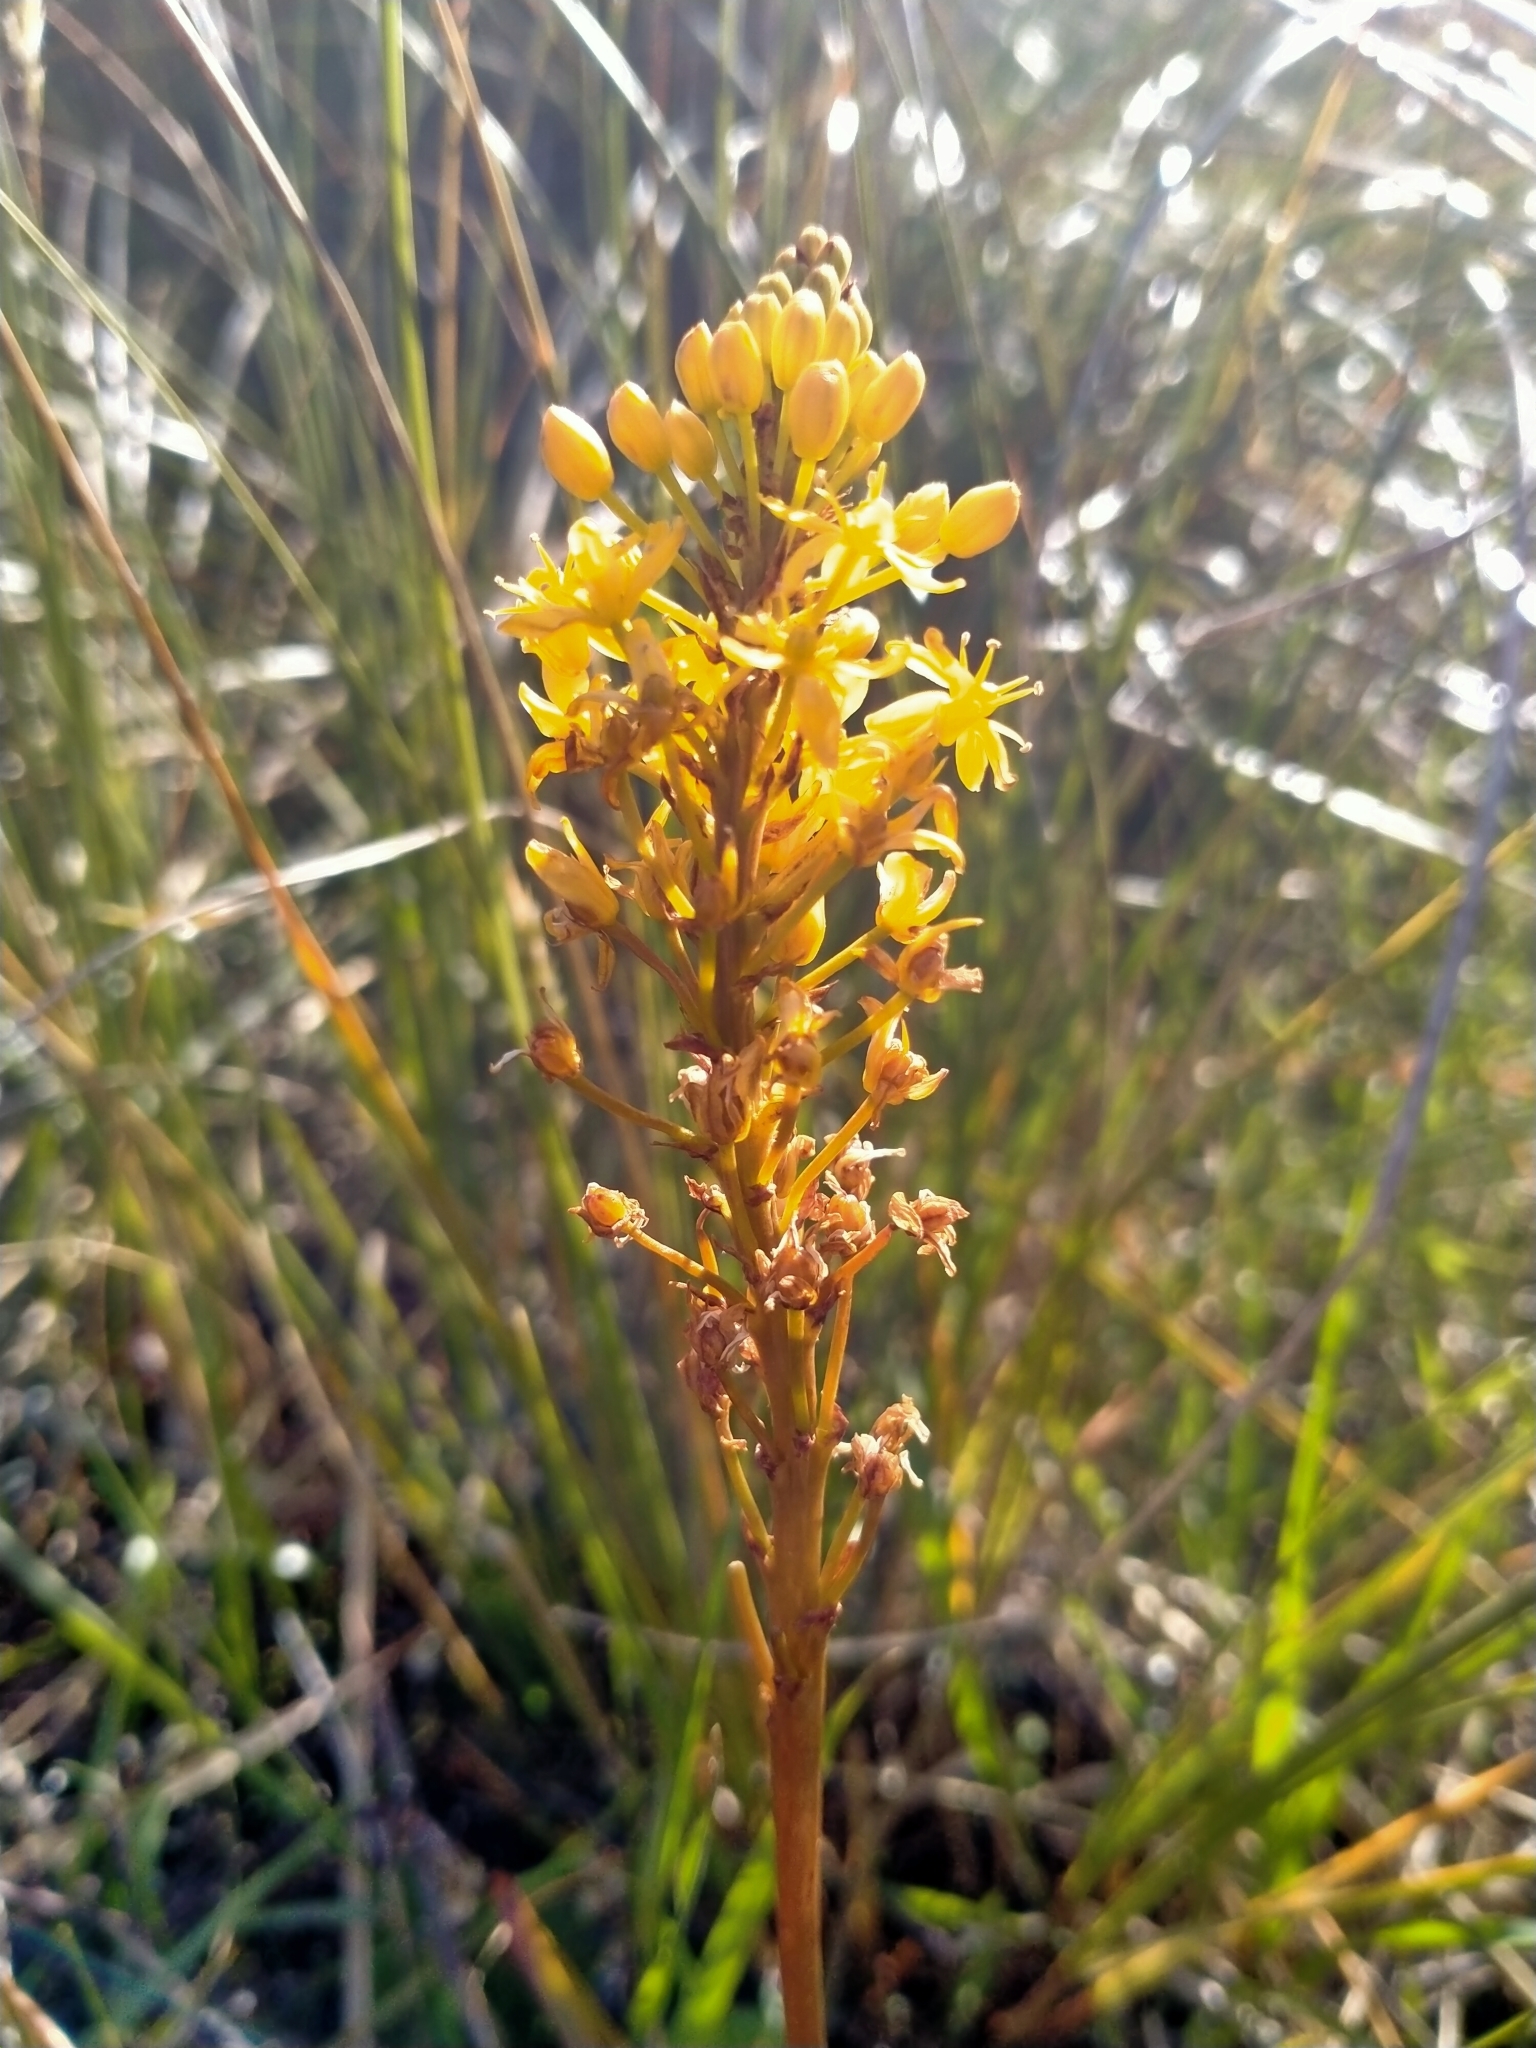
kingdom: Plantae
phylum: Tracheophyta
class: Liliopsida
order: Asparagales
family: Asphodelaceae
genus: Bulbinella
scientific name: Bulbinella angustifolia
